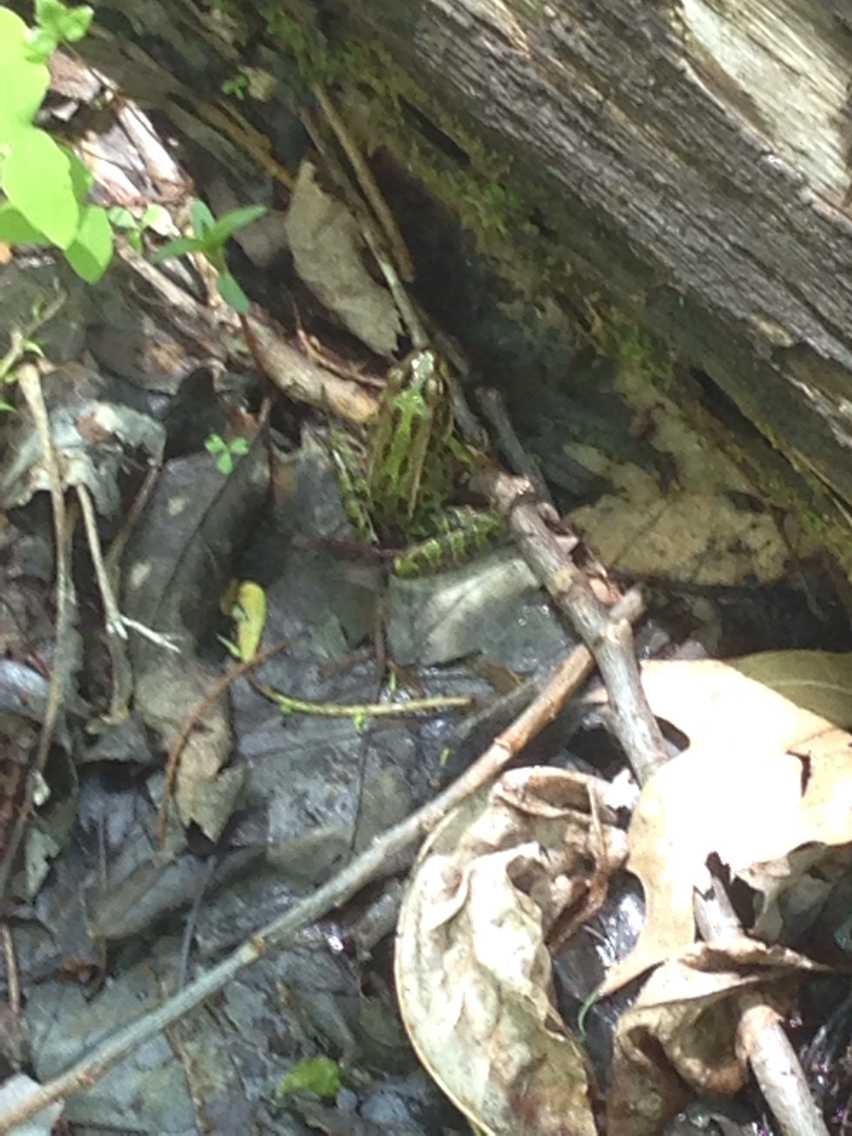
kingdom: Animalia
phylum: Chordata
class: Amphibia
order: Anura
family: Ranidae
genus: Lithobates
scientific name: Lithobates pipiens
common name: Northern leopard frog
